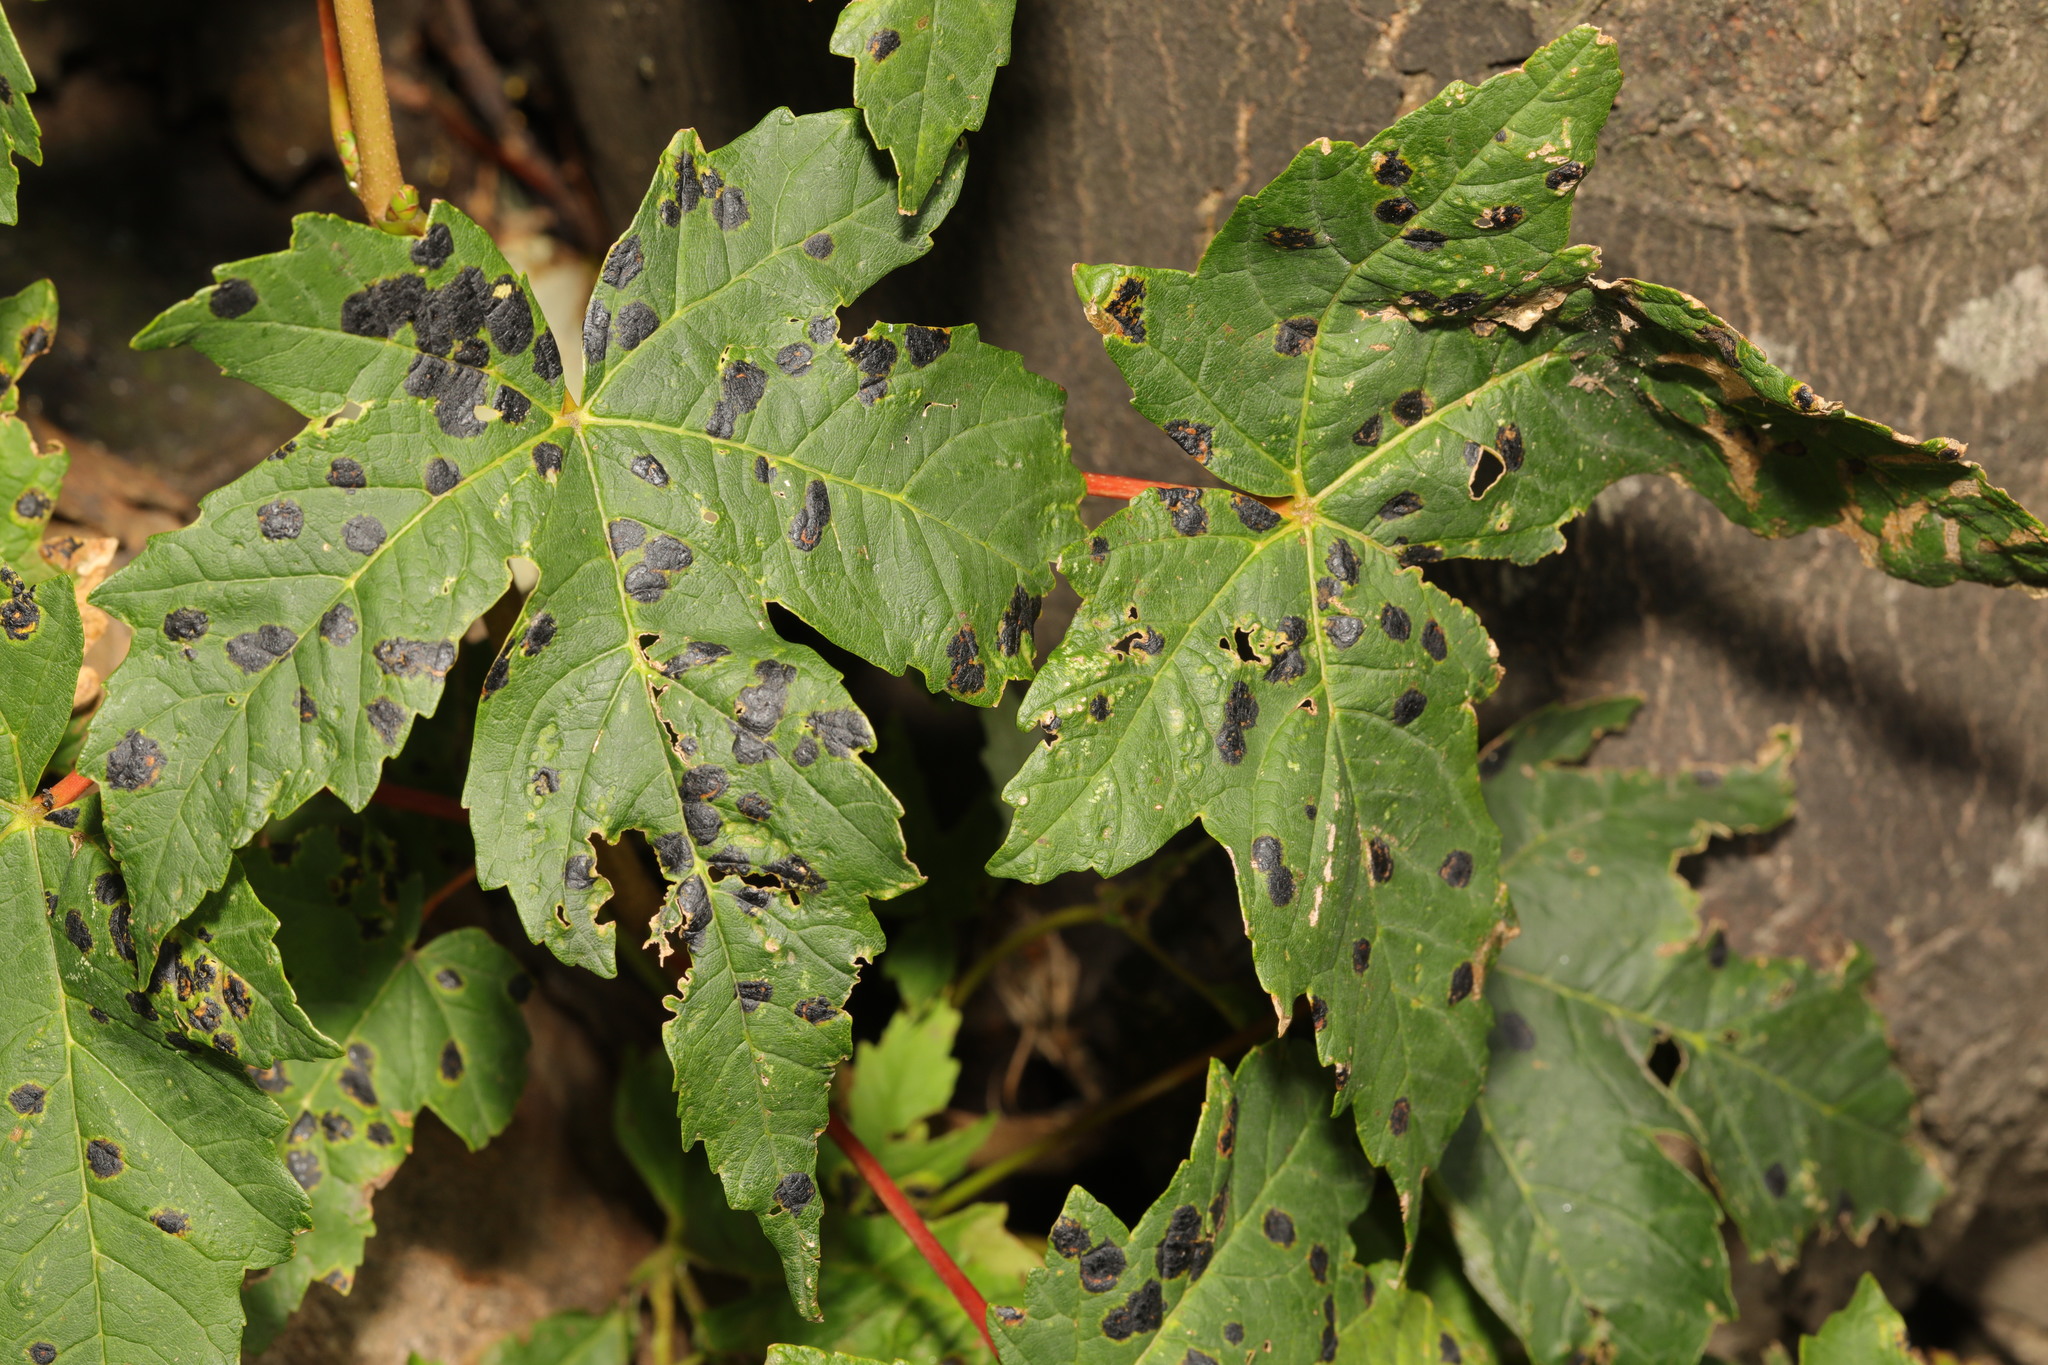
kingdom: Plantae
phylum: Tracheophyta
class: Magnoliopsida
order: Sapindales
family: Sapindaceae
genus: Acer
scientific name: Acer pseudoplatanus
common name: Sycamore
